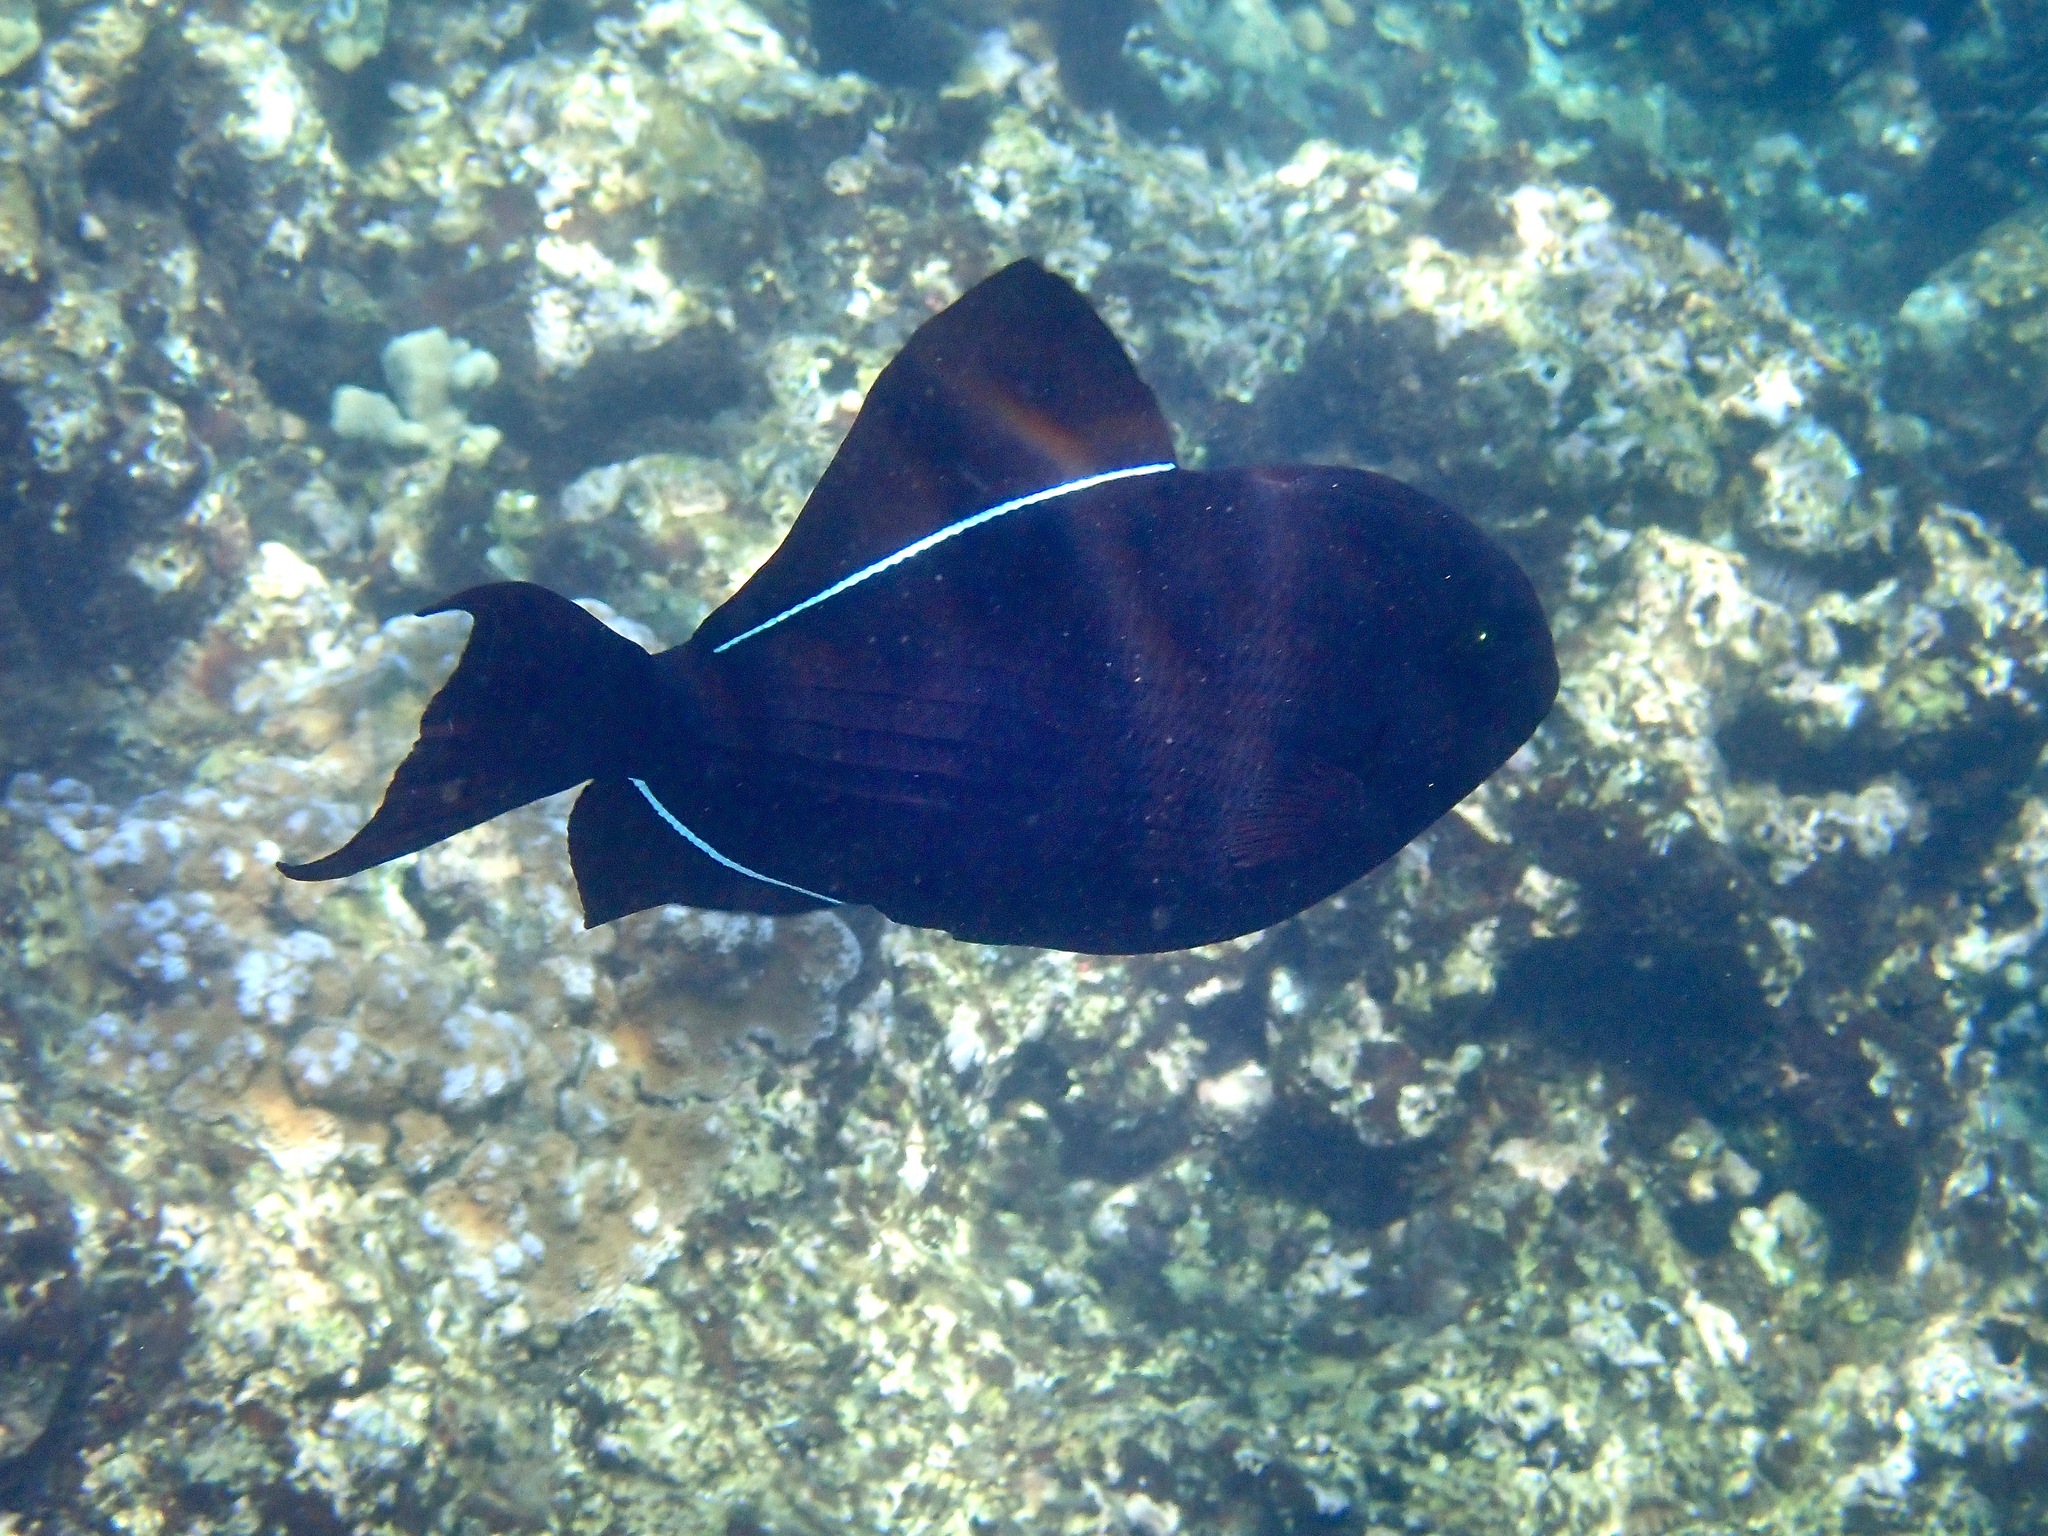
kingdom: Animalia
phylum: Chordata
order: Tetraodontiformes
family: Balistidae
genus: Melichthys
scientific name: Melichthys niger
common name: Black durgon
